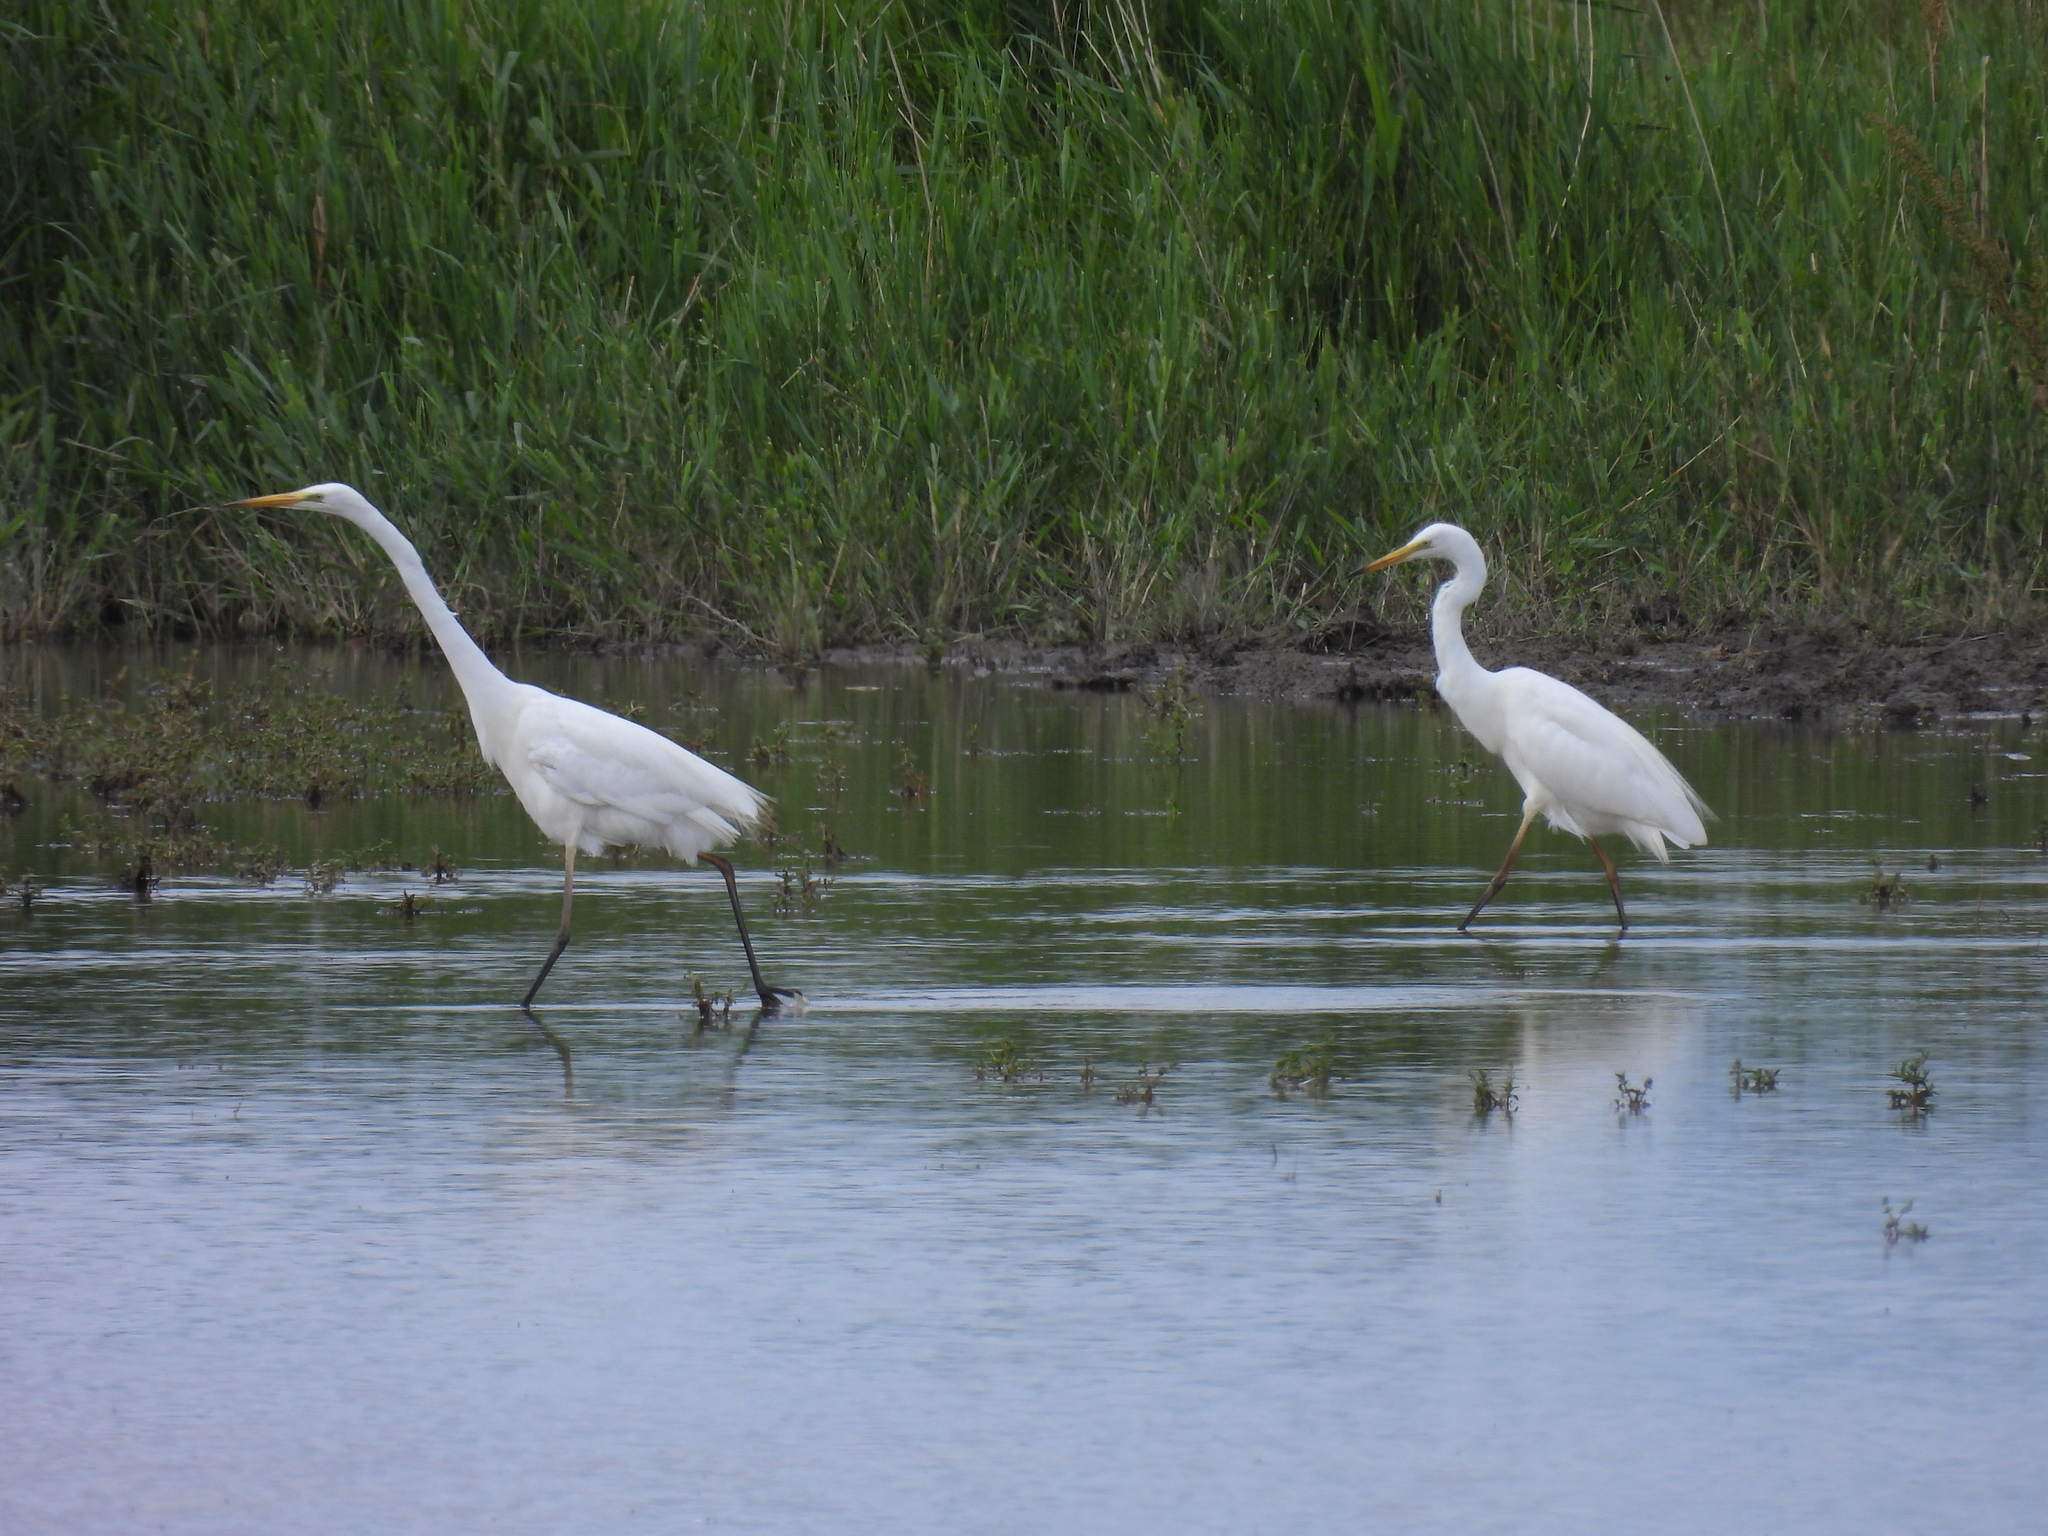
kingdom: Animalia
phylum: Chordata
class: Aves
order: Pelecaniformes
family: Ardeidae
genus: Ardea
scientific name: Ardea alba
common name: Great egret
